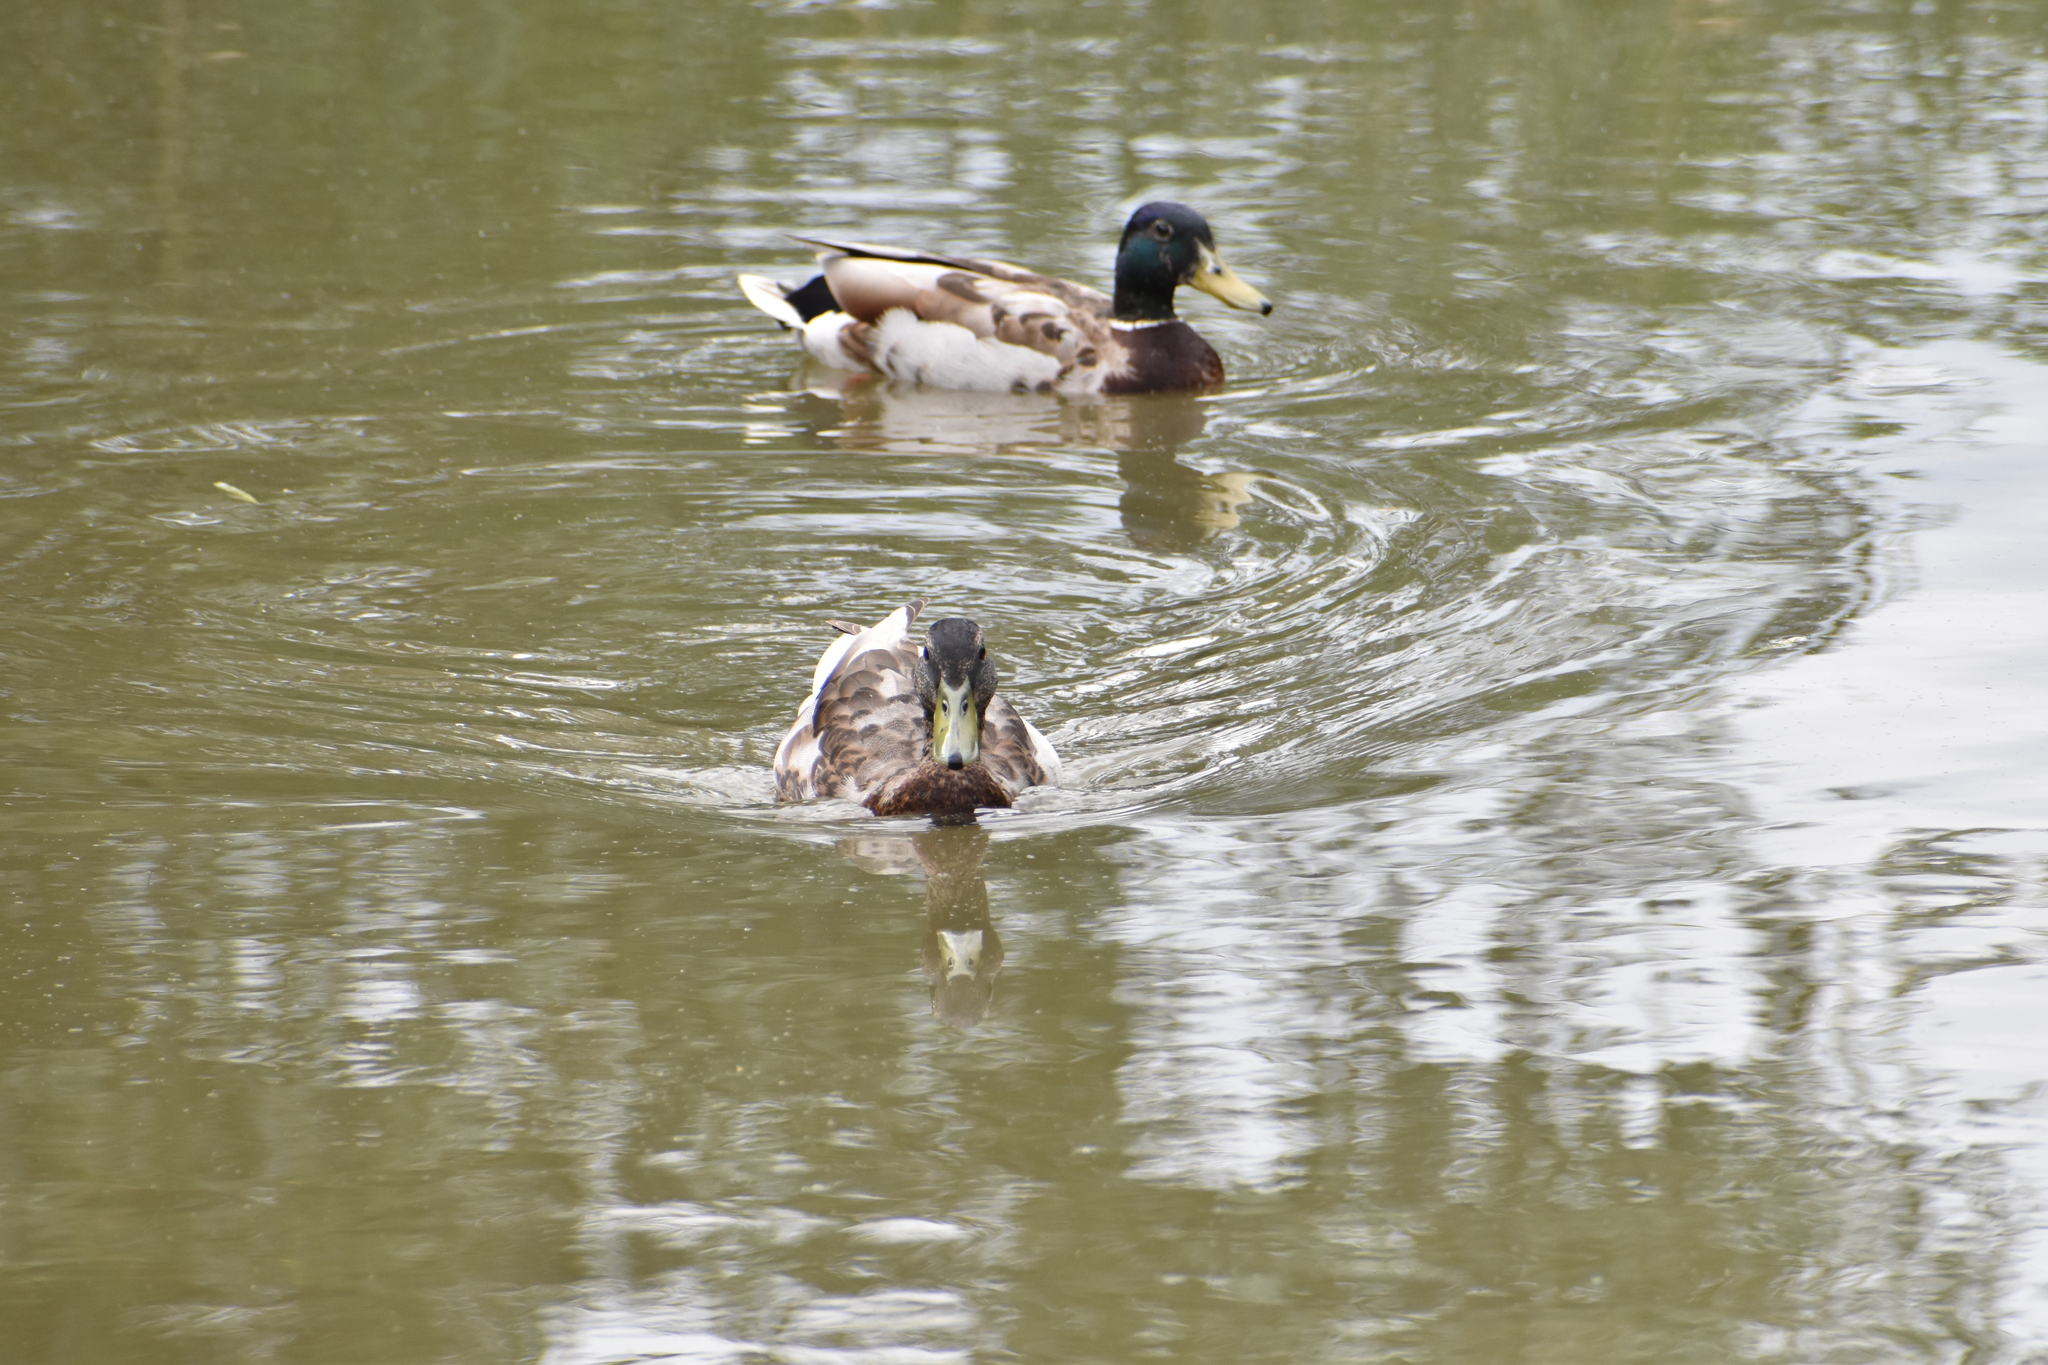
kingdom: Animalia
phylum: Chordata
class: Aves
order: Anseriformes
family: Anatidae
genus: Anas
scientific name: Anas platyrhynchos
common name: Mallard
